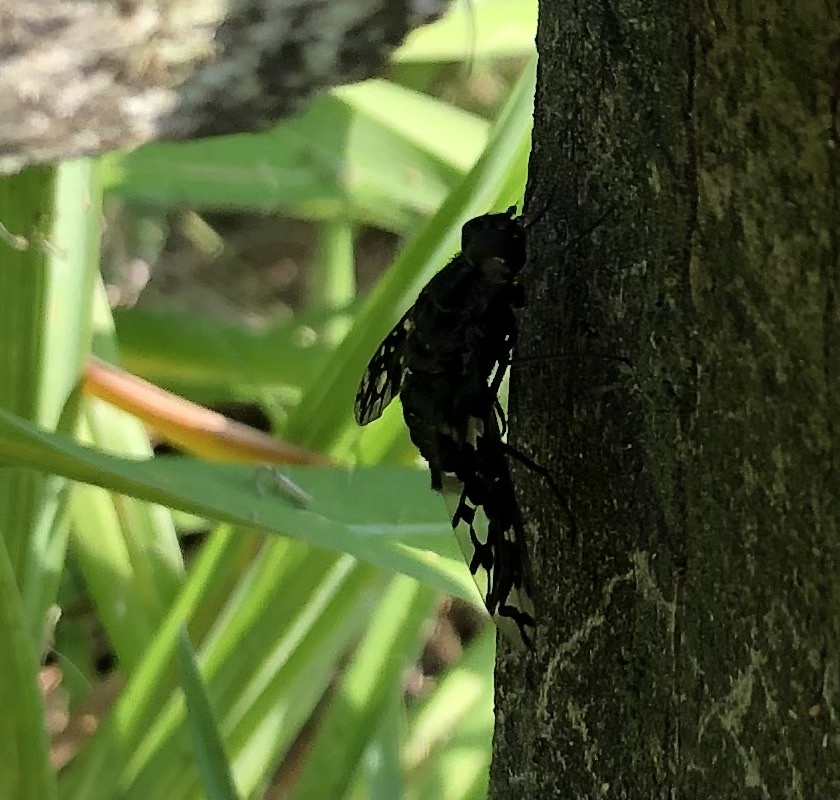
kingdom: Animalia
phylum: Arthropoda
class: Insecta
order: Diptera
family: Bombyliidae
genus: Xenox
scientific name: Xenox tigrinus
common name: Tiger bee fly
